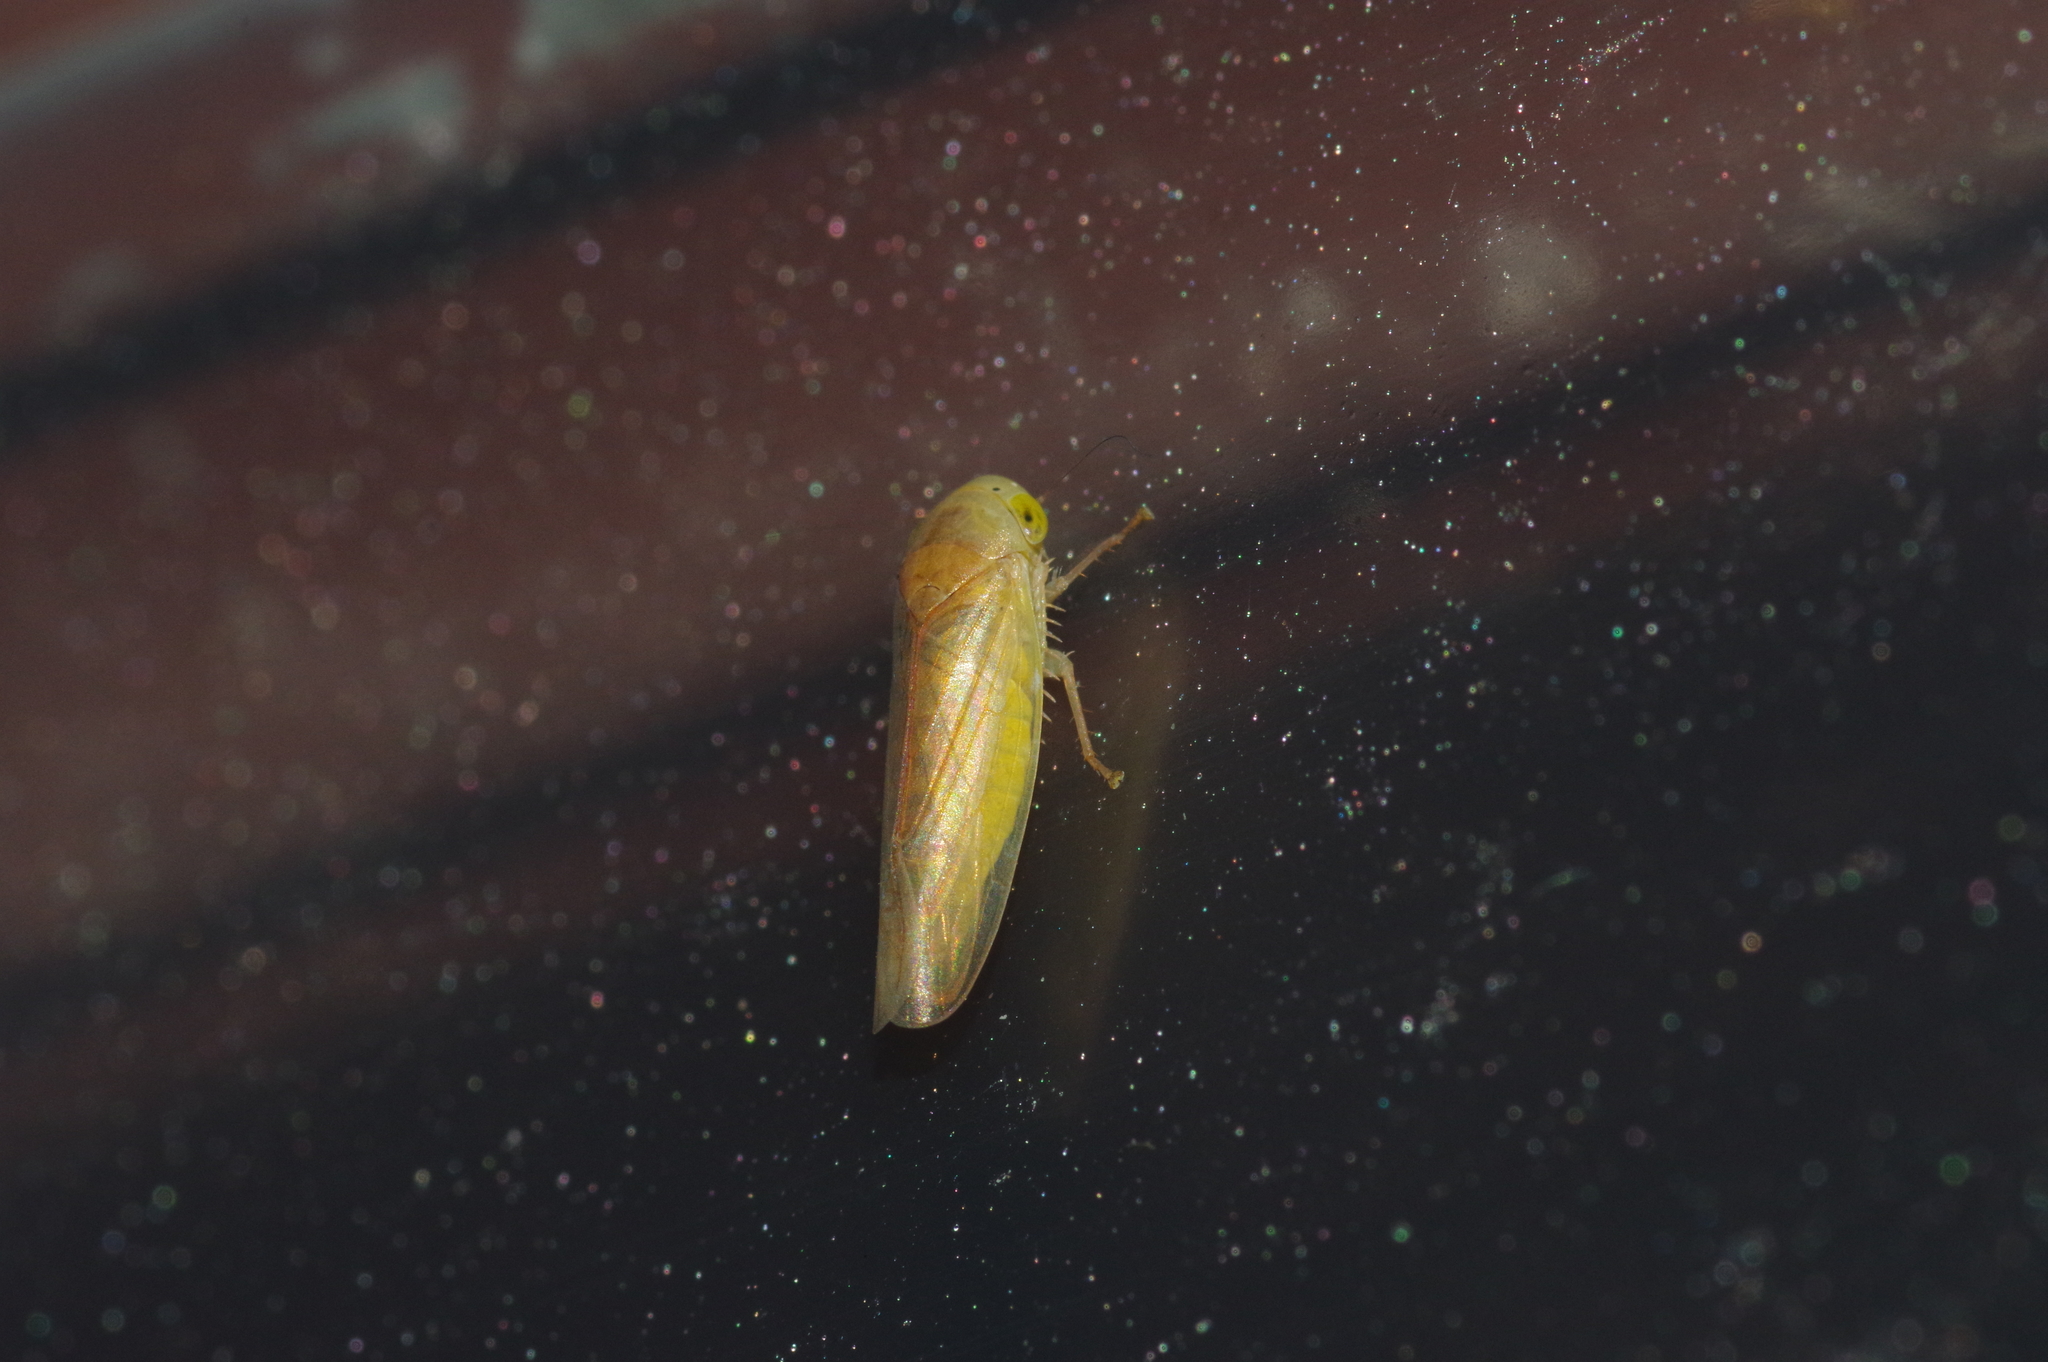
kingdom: Animalia
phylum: Arthropoda
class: Insecta
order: Hemiptera
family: Cicadellidae
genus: Tartessus
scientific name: Tartessus ferrugineus
